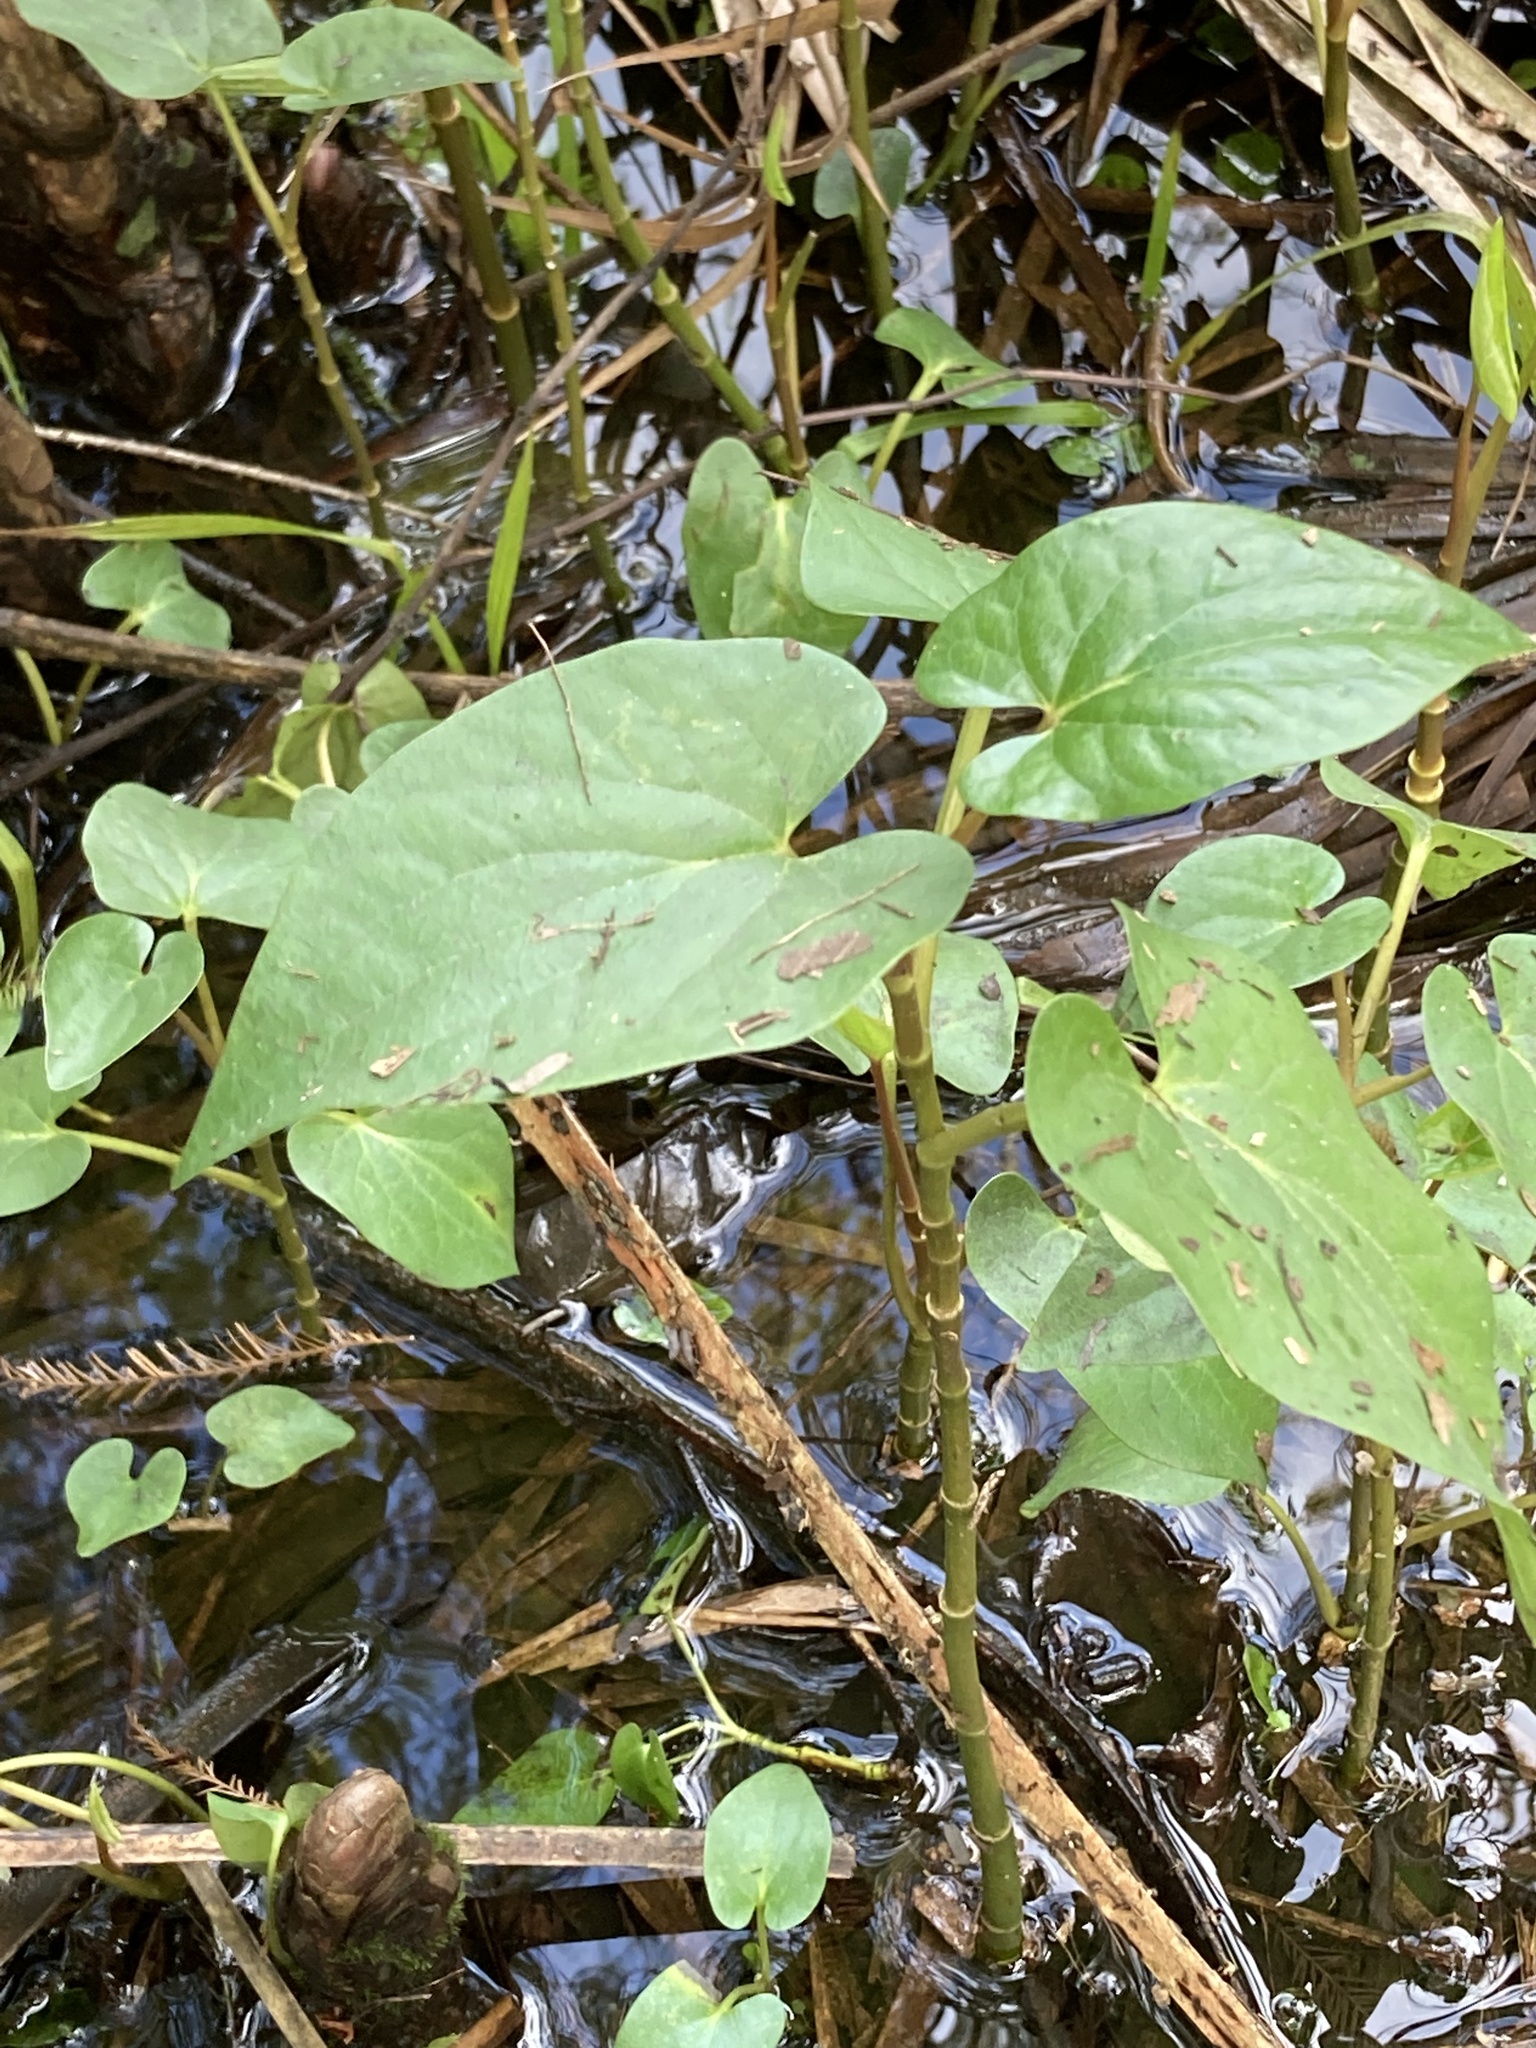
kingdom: Plantae
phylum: Tracheophyta
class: Magnoliopsida
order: Piperales
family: Saururaceae
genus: Saururus
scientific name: Saururus cernuus
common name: Lizard's-tail
